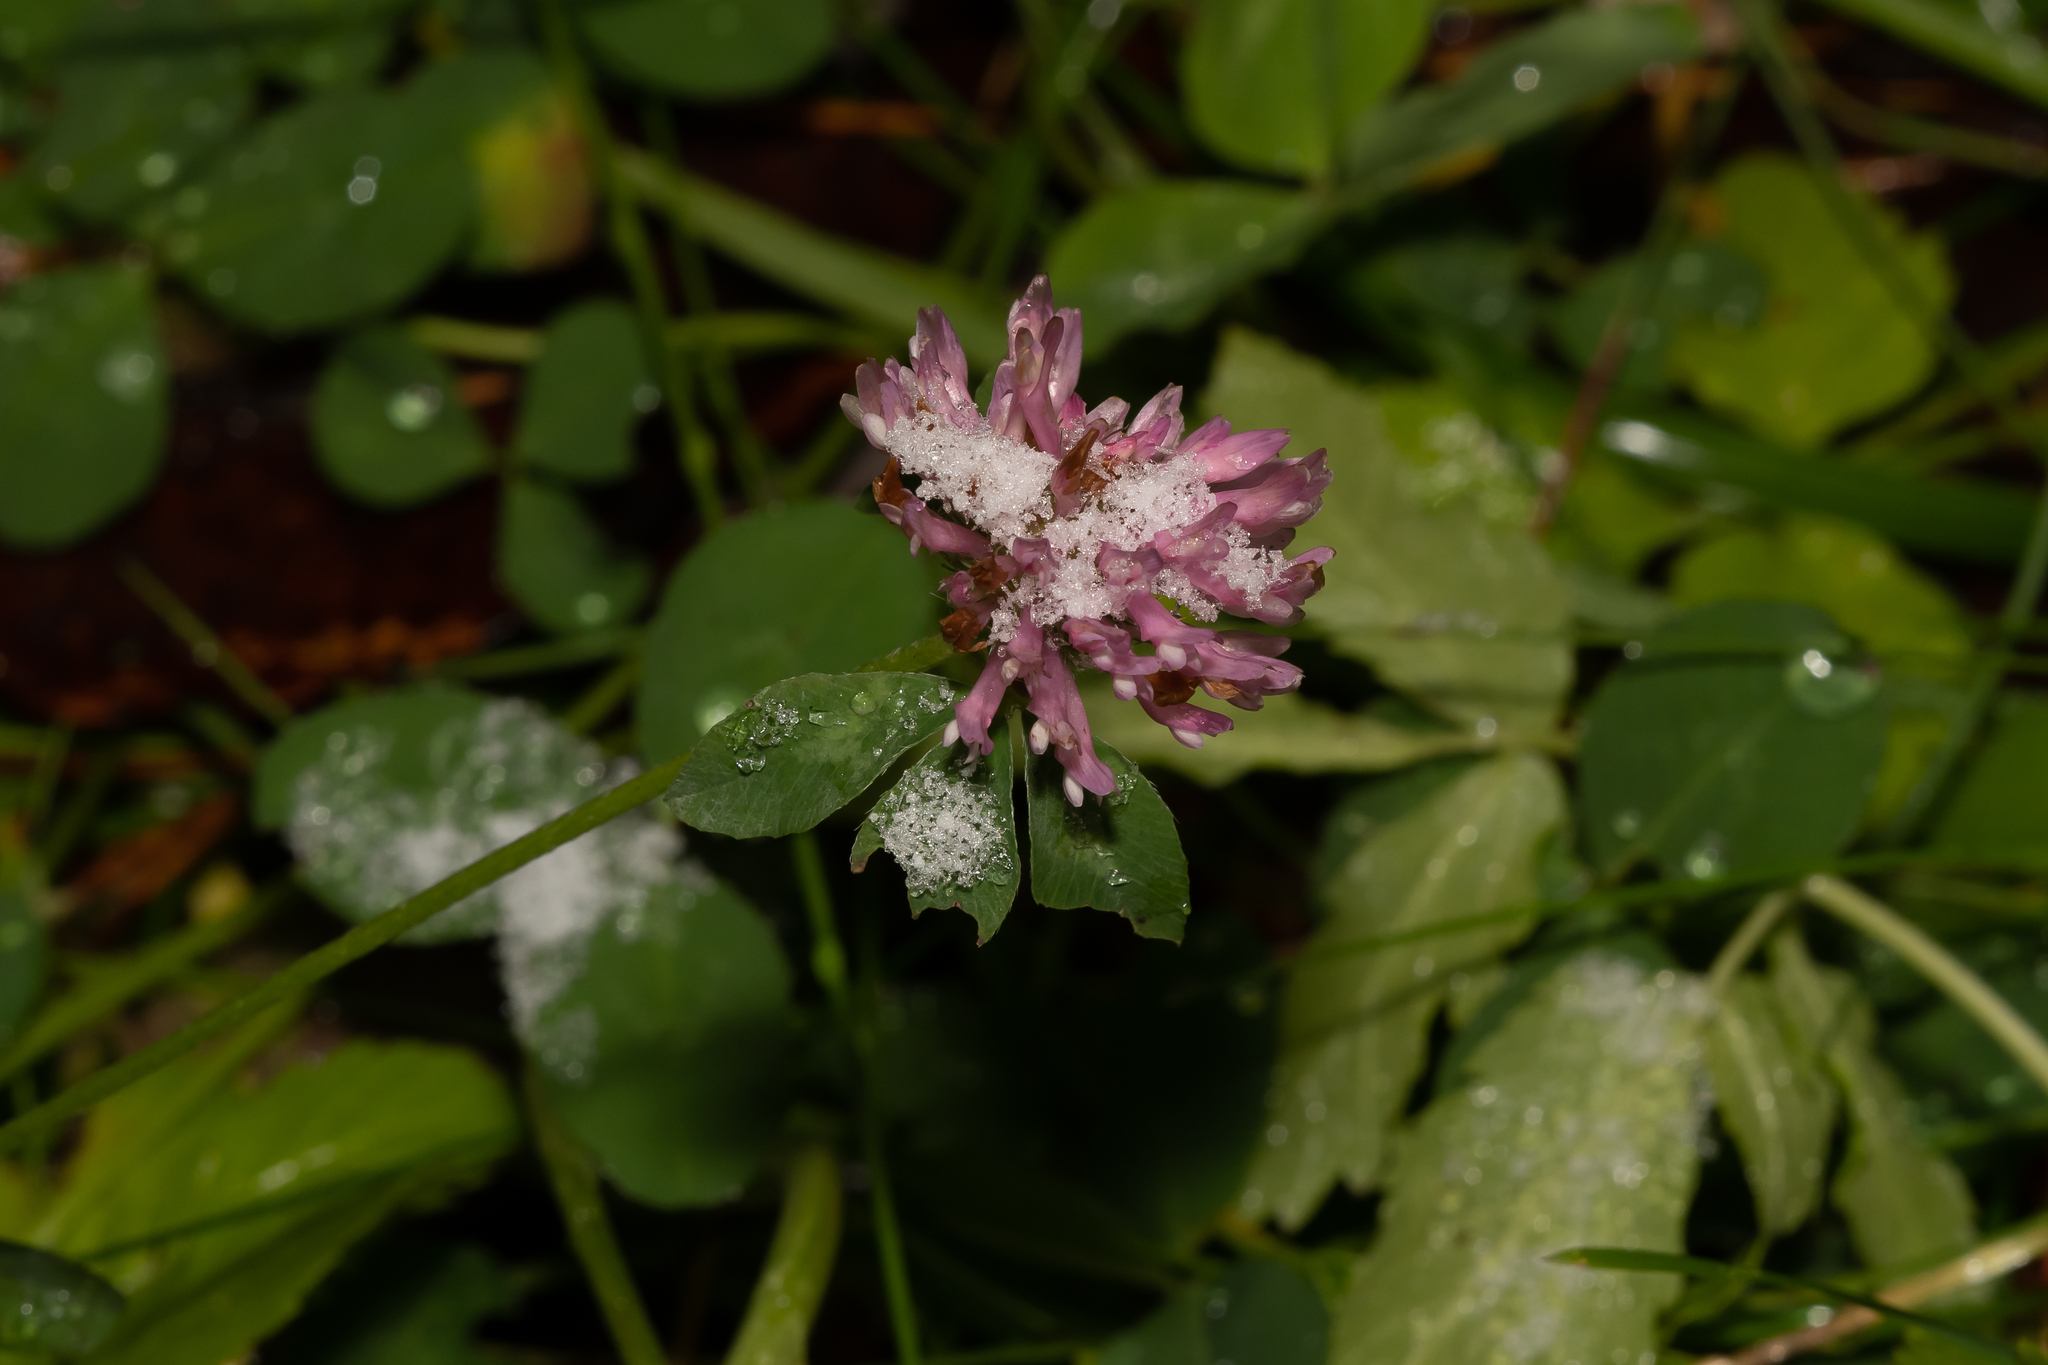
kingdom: Plantae
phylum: Tracheophyta
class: Magnoliopsida
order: Fabales
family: Fabaceae
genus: Trifolium
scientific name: Trifolium pratense
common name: Red clover
